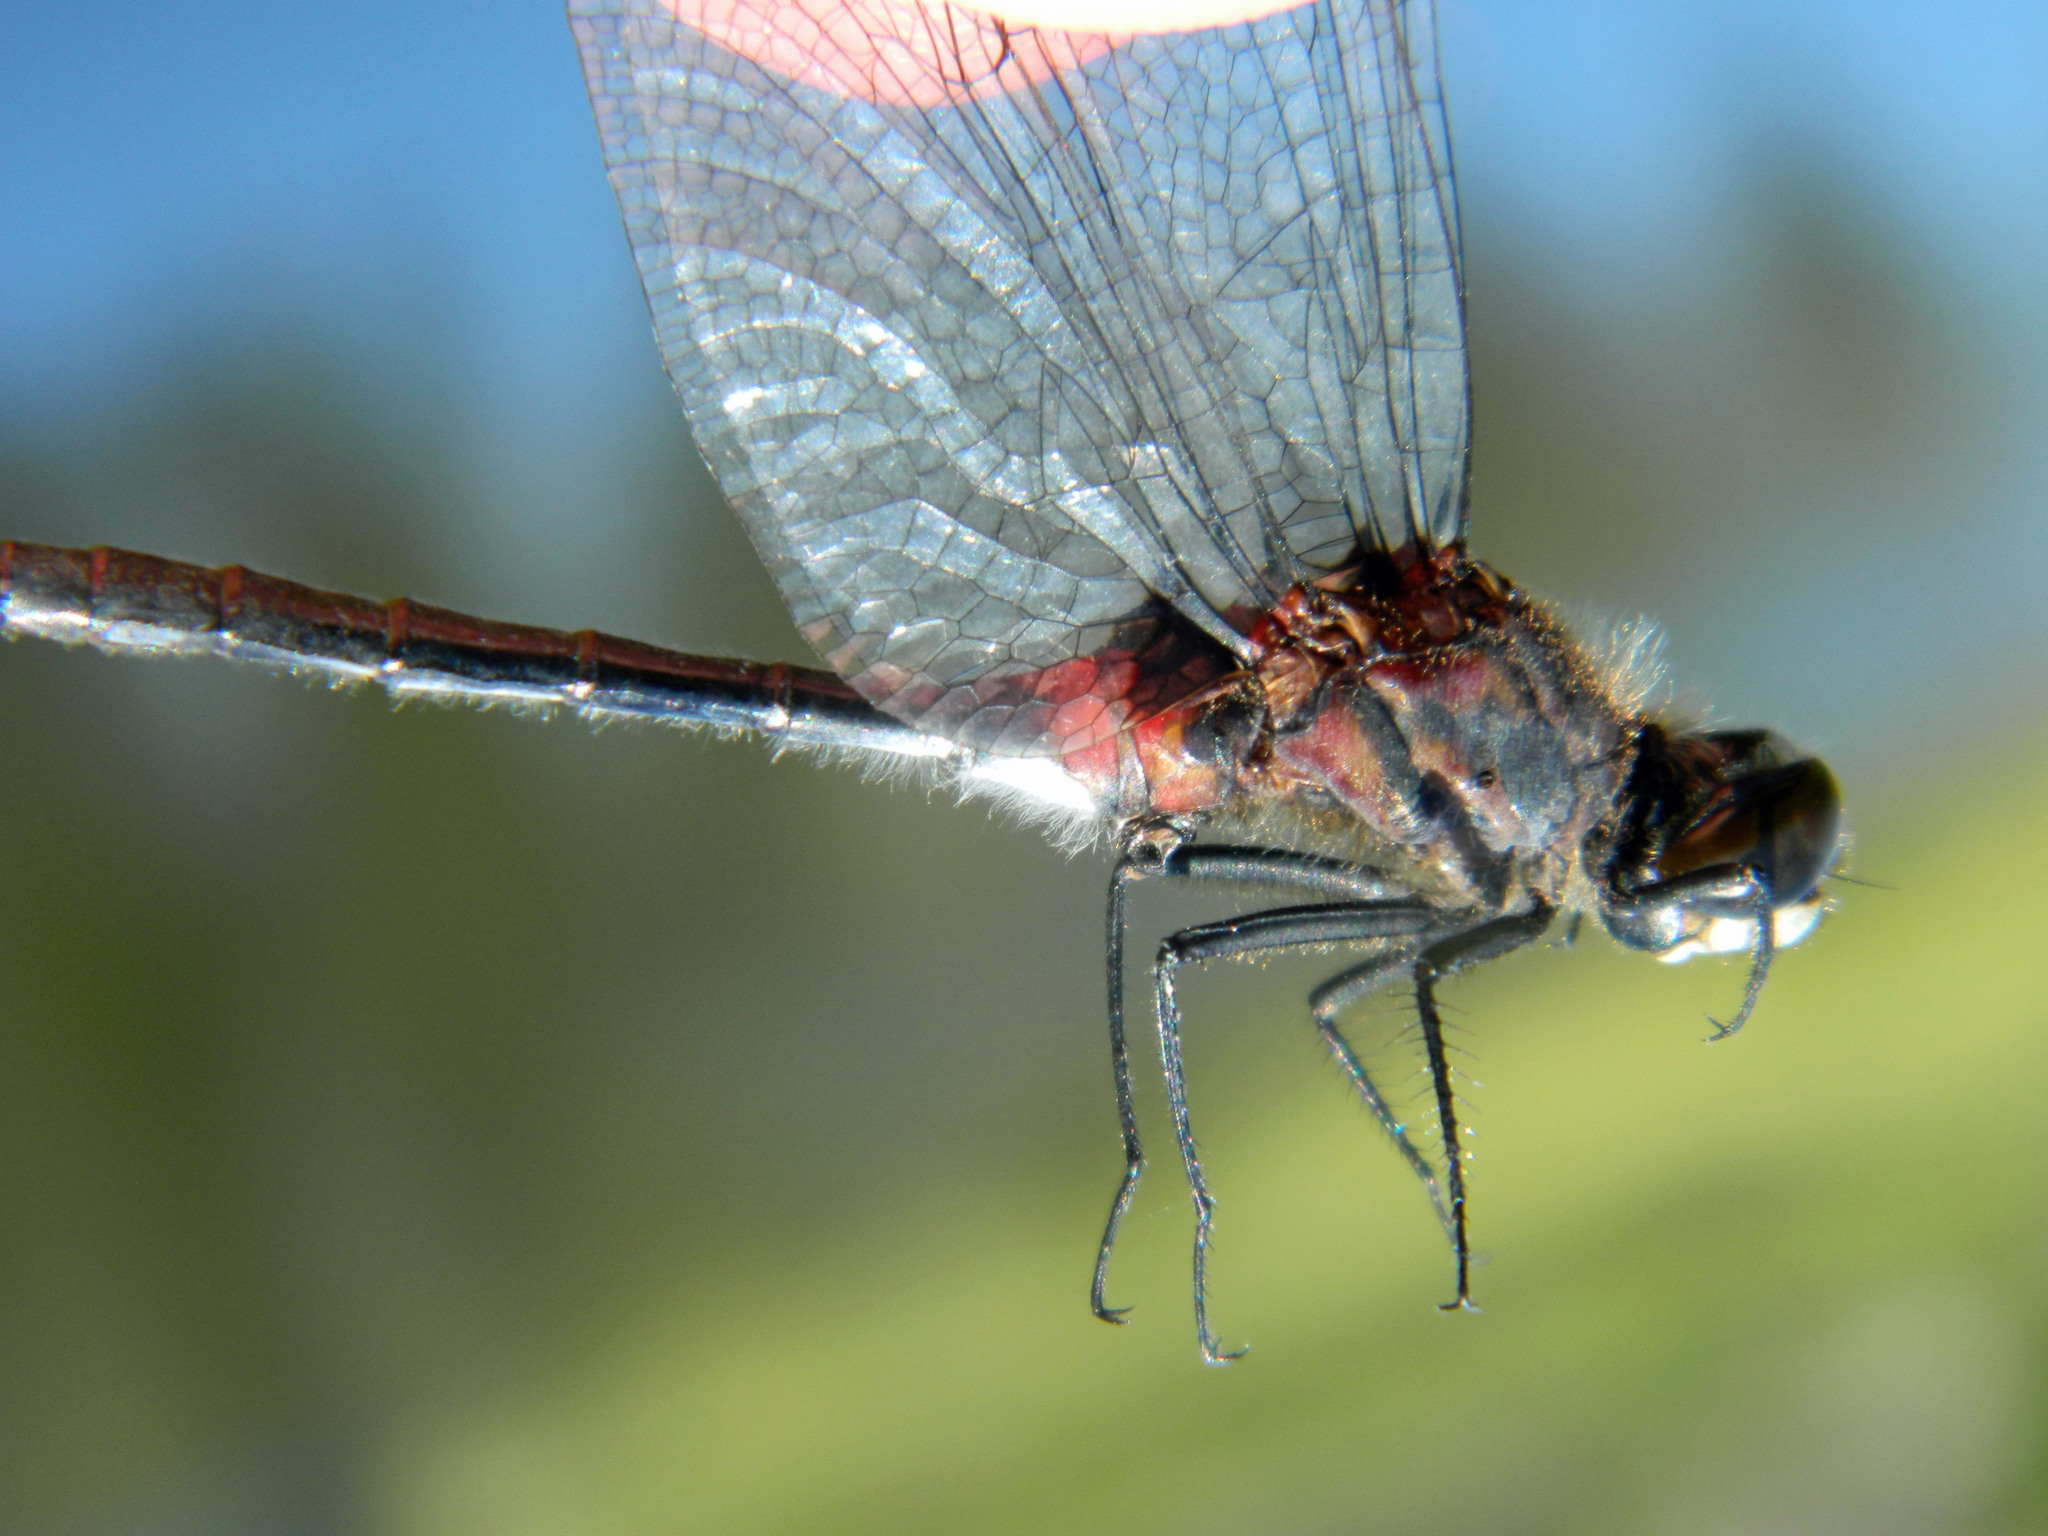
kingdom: Animalia
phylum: Arthropoda
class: Insecta
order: Odonata
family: Libellulidae
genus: Leucorrhinia
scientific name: Leucorrhinia glacialis
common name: Crimson-ringed whiteface
